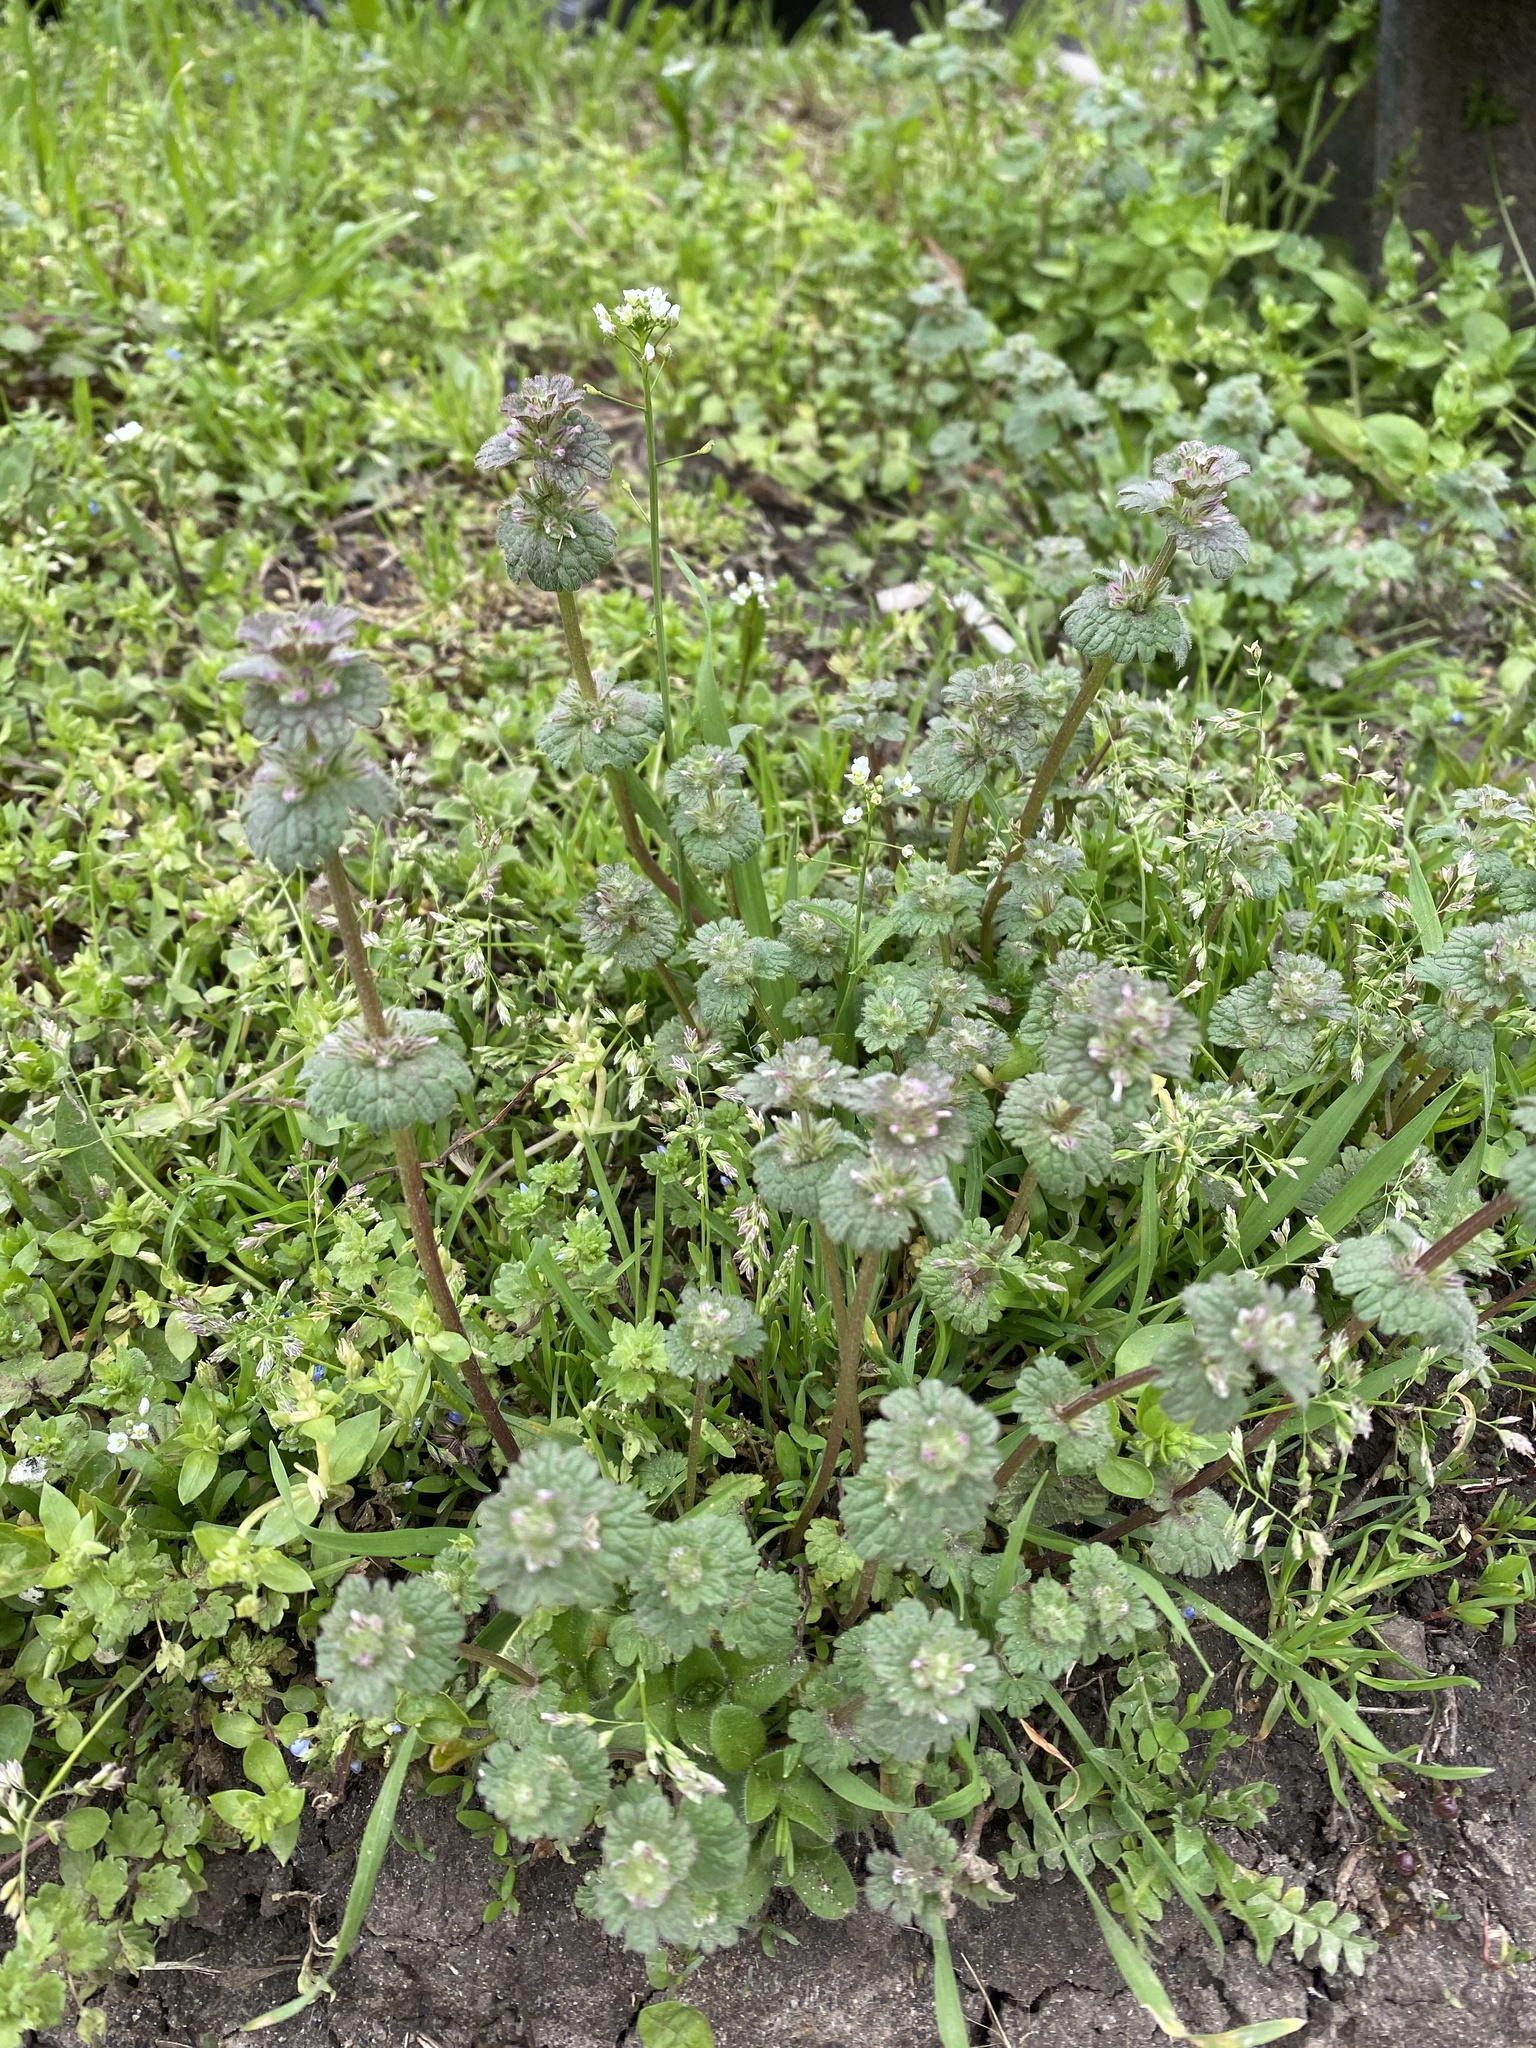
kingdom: Plantae
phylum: Tracheophyta
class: Magnoliopsida
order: Lamiales
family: Lamiaceae
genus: Lamium
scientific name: Lamium amplexicaule
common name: Henbit dead-nettle
